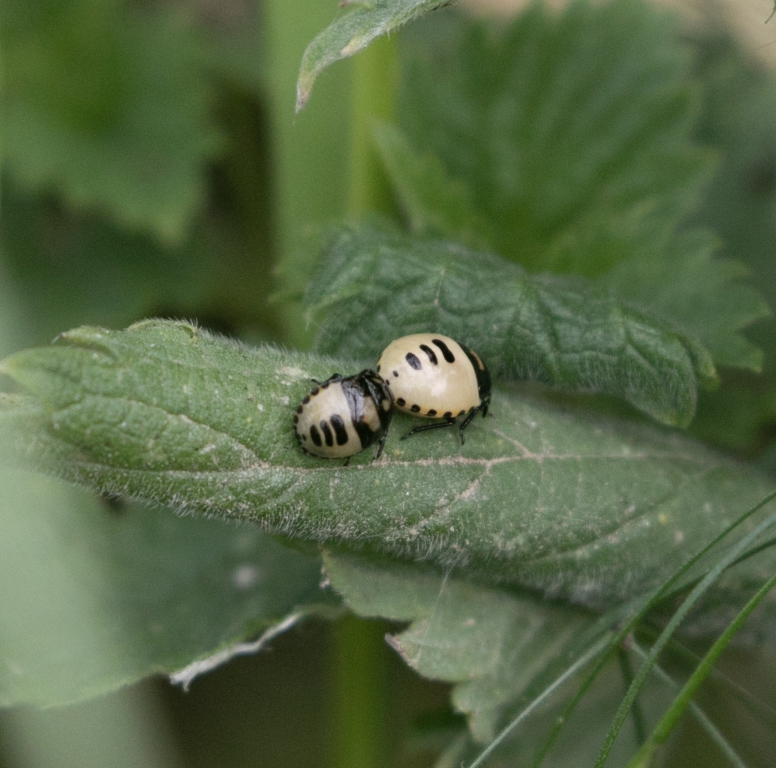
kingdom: Animalia
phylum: Arthropoda
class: Insecta
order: Hemiptera
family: Cydnidae
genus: Tritomegas
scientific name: Tritomegas bicolor
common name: Pied shieldbug
